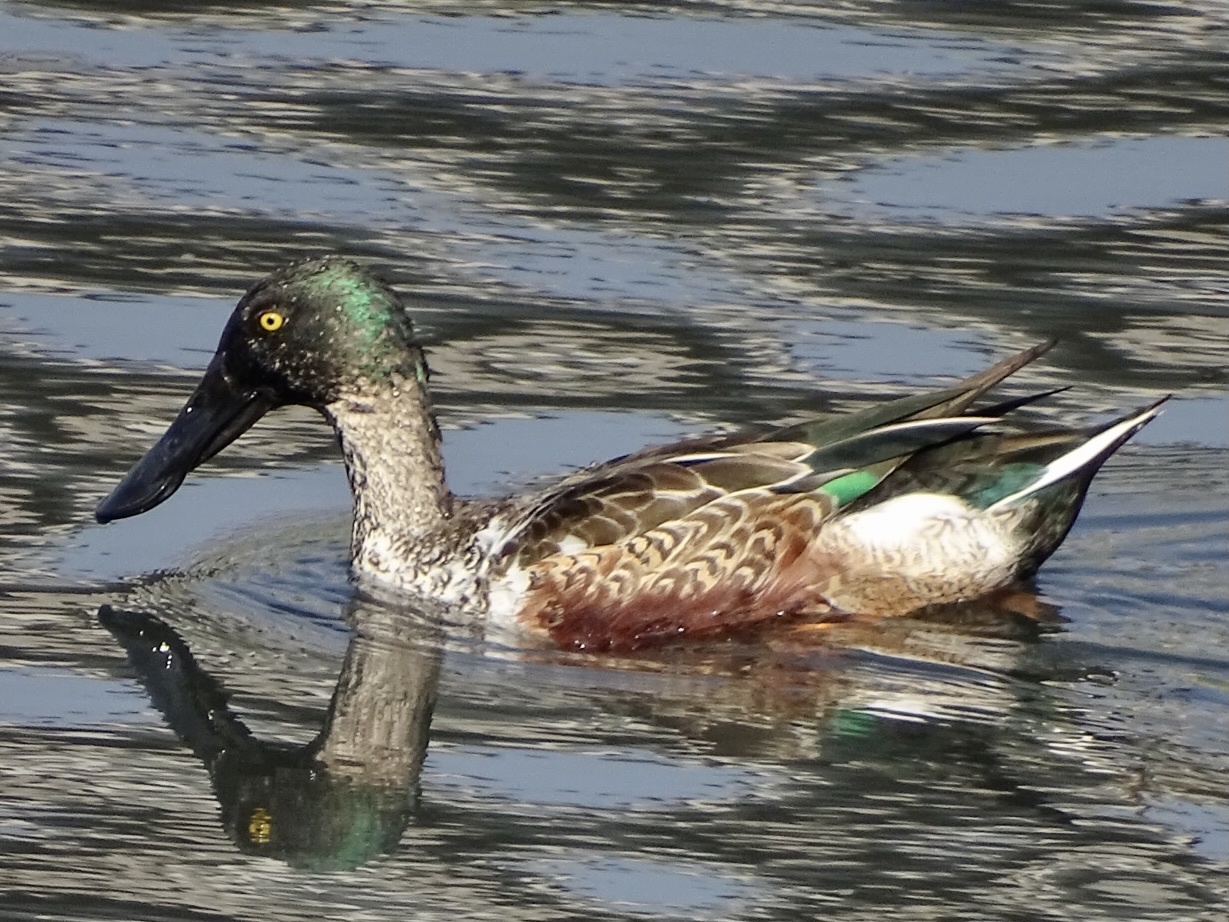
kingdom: Animalia
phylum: Chordata
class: Aves
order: Anseriformes
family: Anatidae
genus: Spatula
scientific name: Spatula clypeata
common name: Northern shoveler
